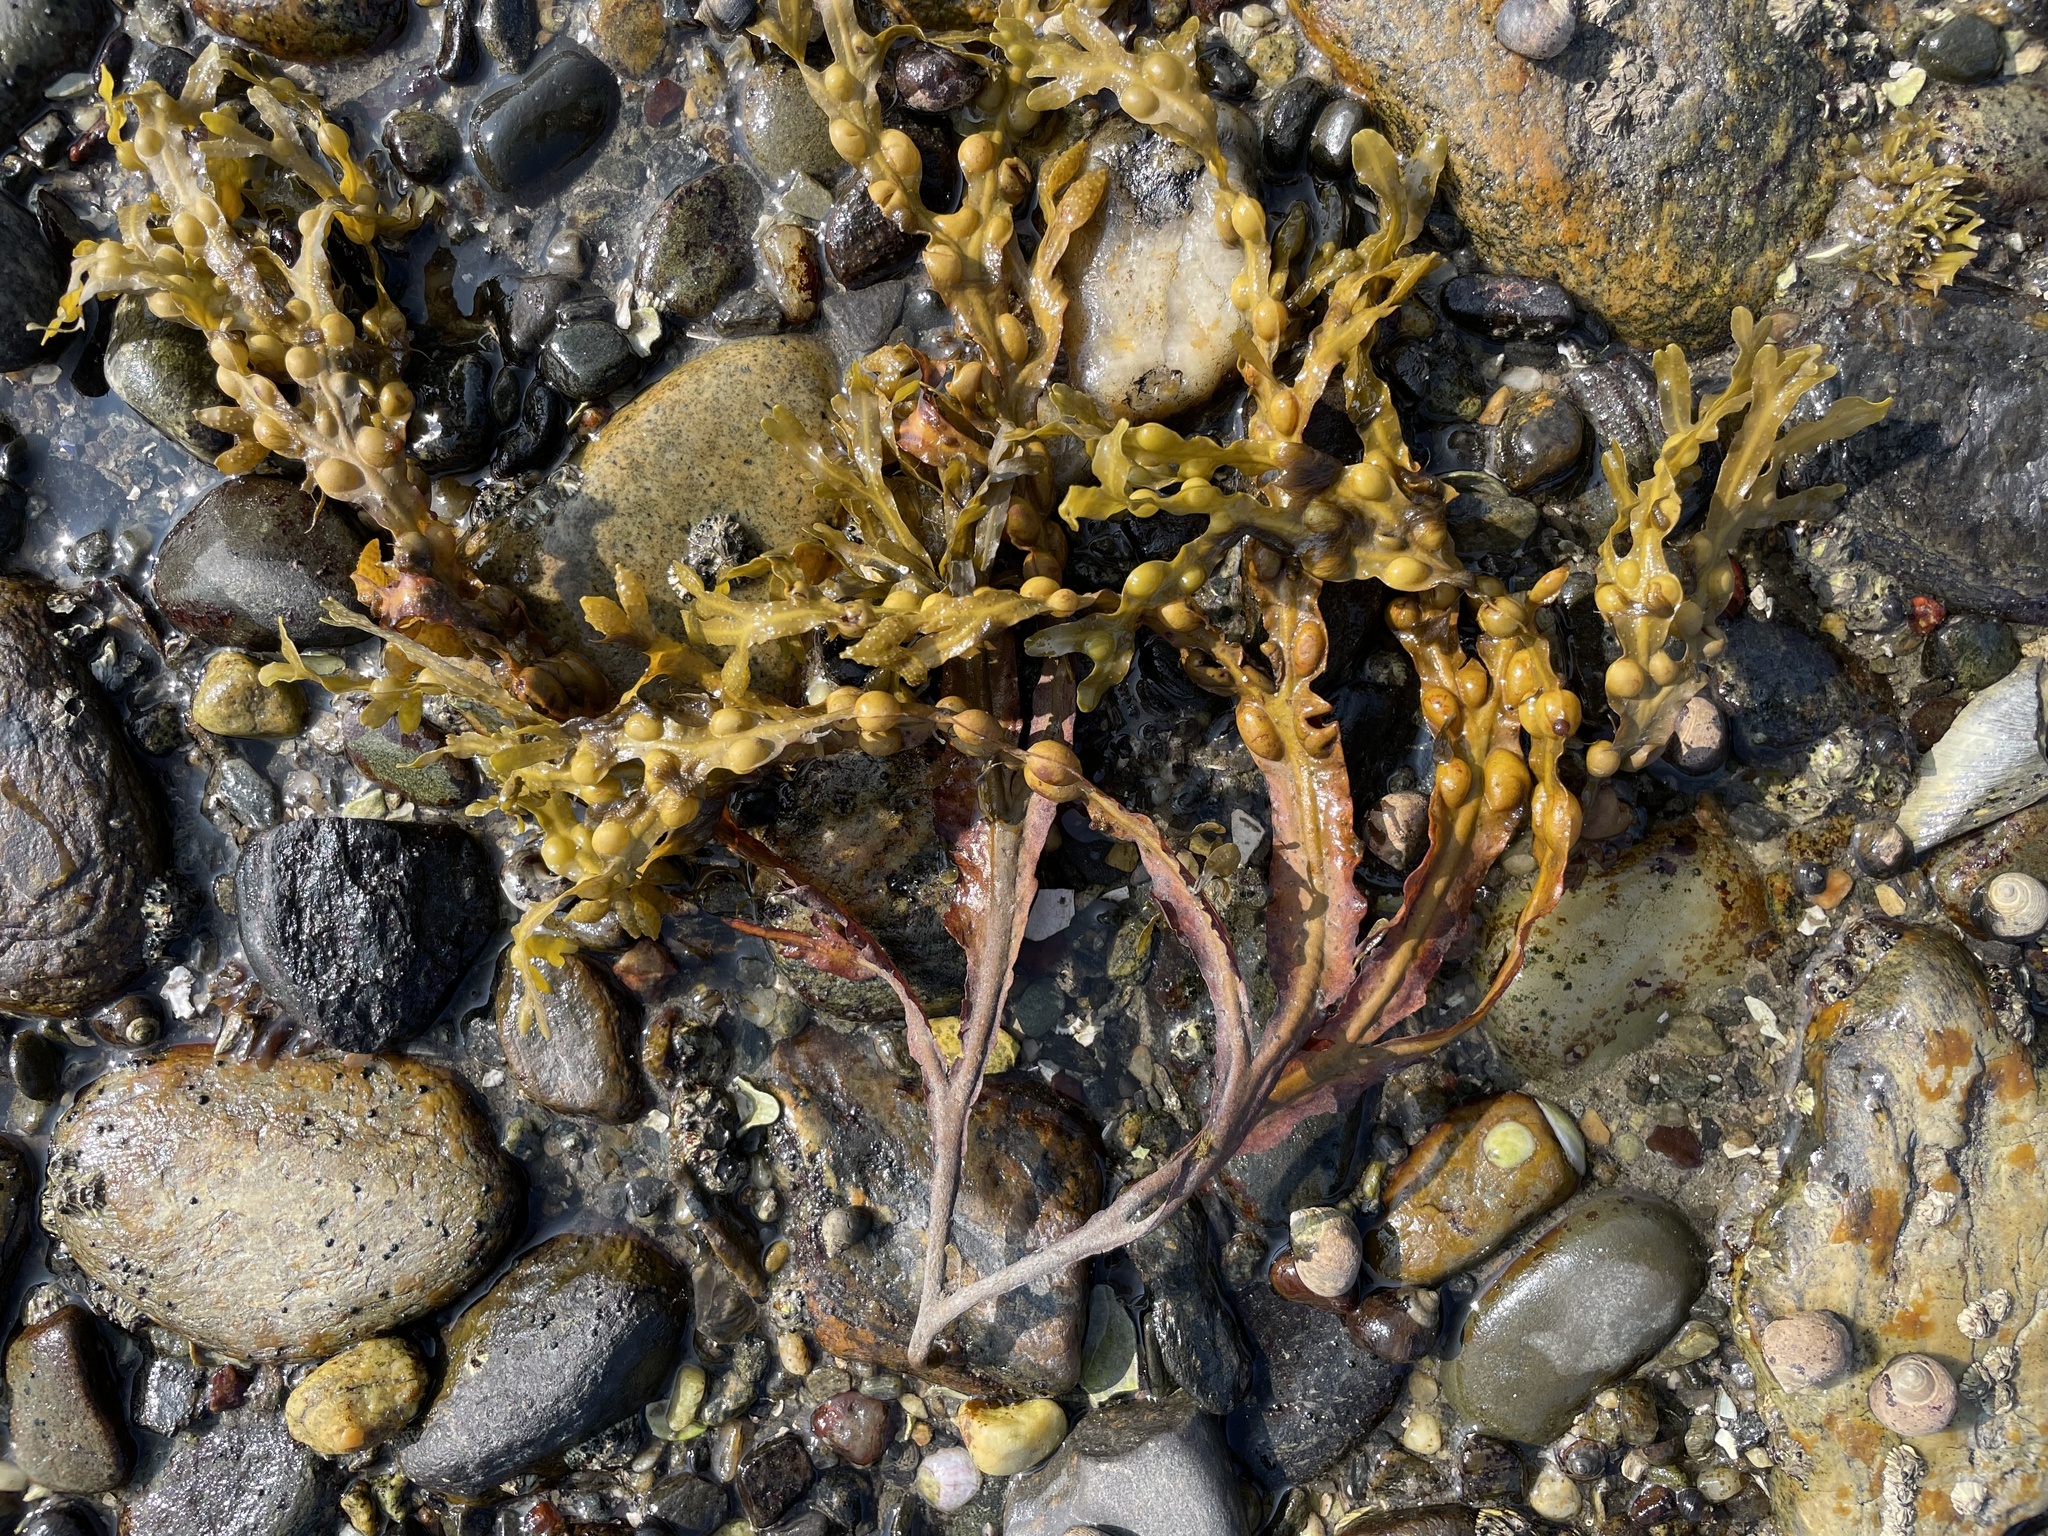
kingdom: Chromista
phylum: Ochrophyta
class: Phaeophyceae
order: Fucales
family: Fucaceae
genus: Fucus
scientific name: Fucus vesiculosus
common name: Bladder wrack
